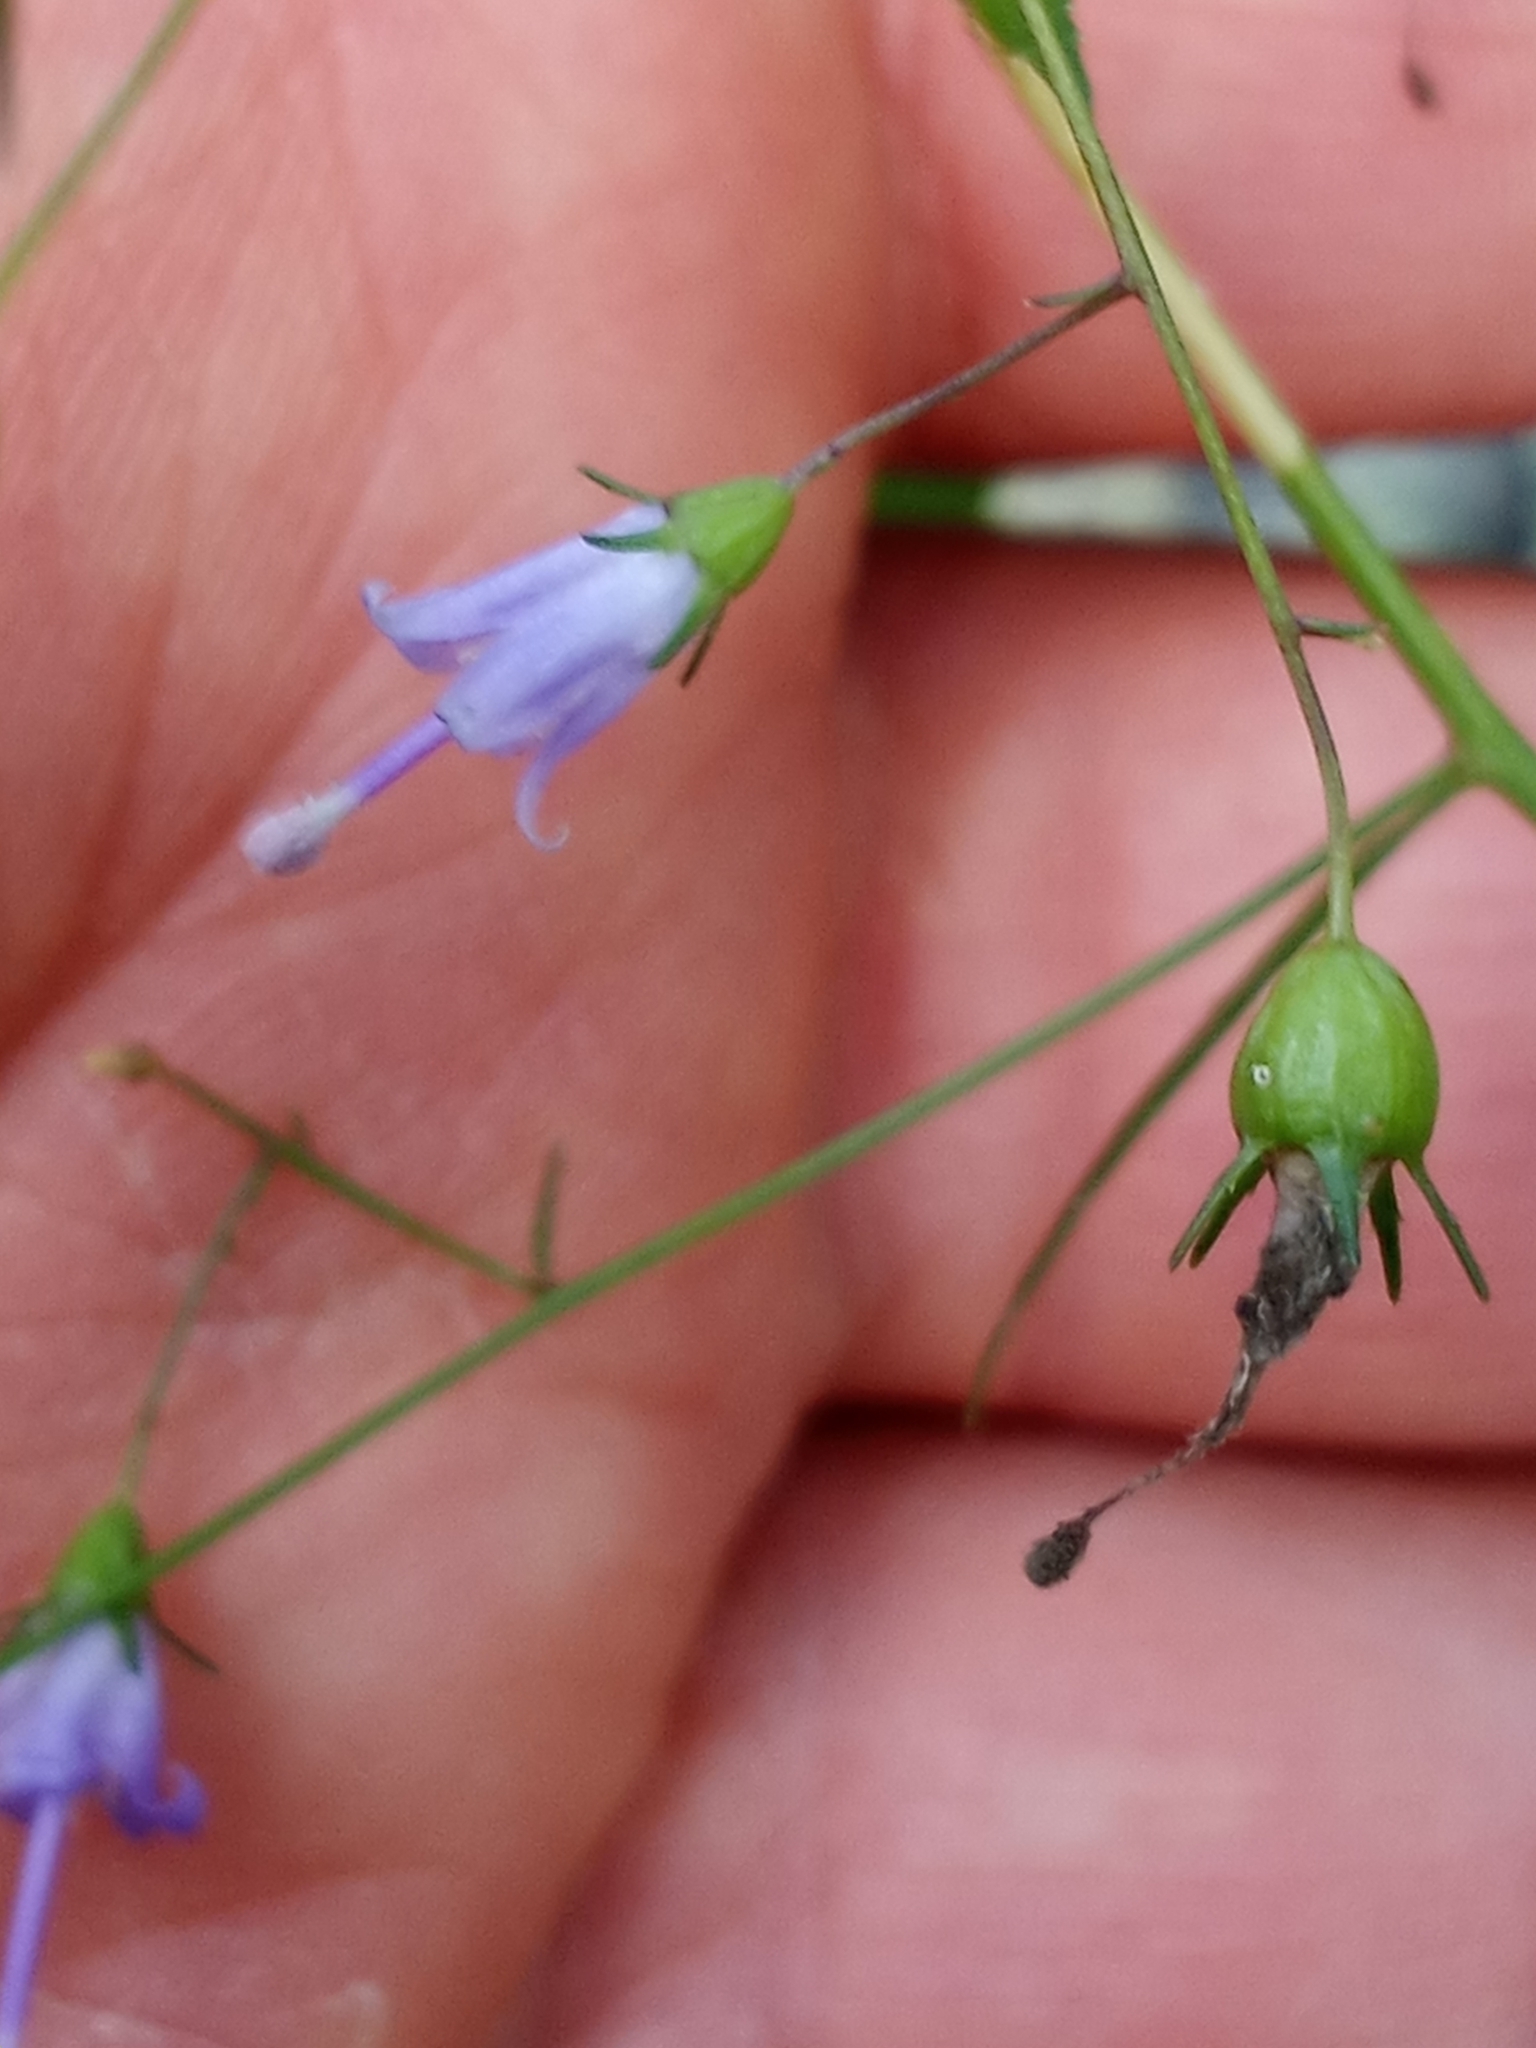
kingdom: Plantae
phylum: Tracheophyta
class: Magnoliopsida
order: Asterales
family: Campanulaceae
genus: Campanula
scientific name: Campanula divaricata
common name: Appalachian bellflower
